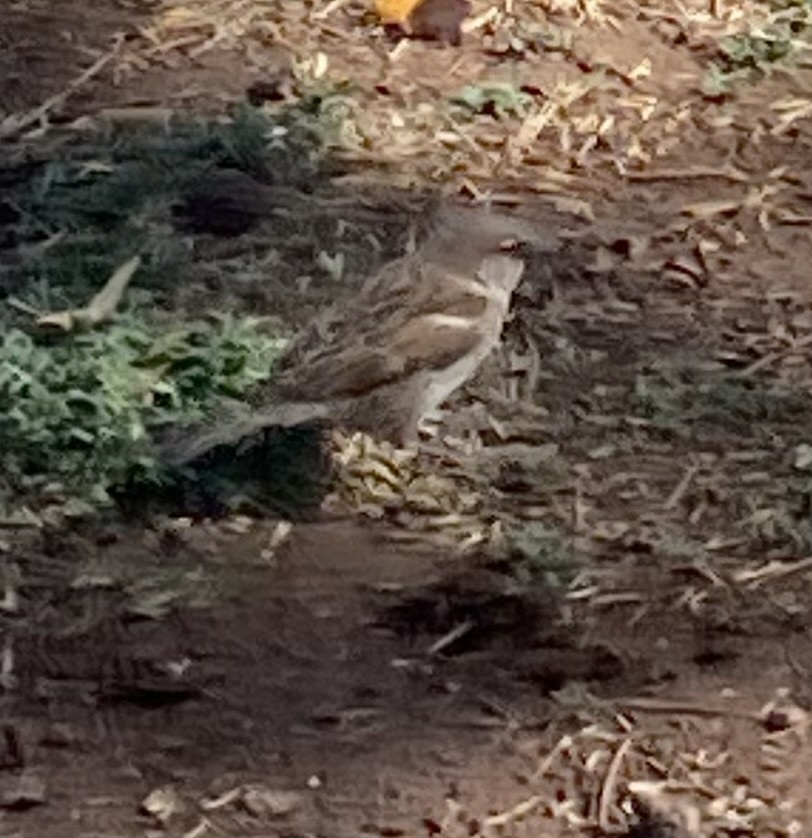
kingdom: Animalia
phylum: Chordata
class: Aves
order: Passeriformes
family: Passeridae
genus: Passer
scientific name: Passer domesticus
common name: House sparrow
